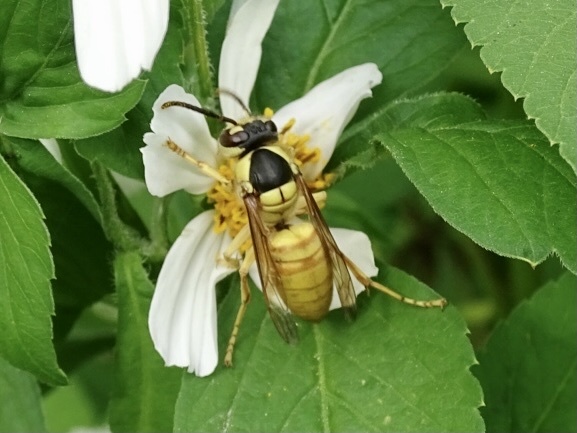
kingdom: Animalia
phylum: Arthropoda
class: Insecta
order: Hymenoptera
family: Vespidae
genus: Vespa
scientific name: Vespa bicolor
